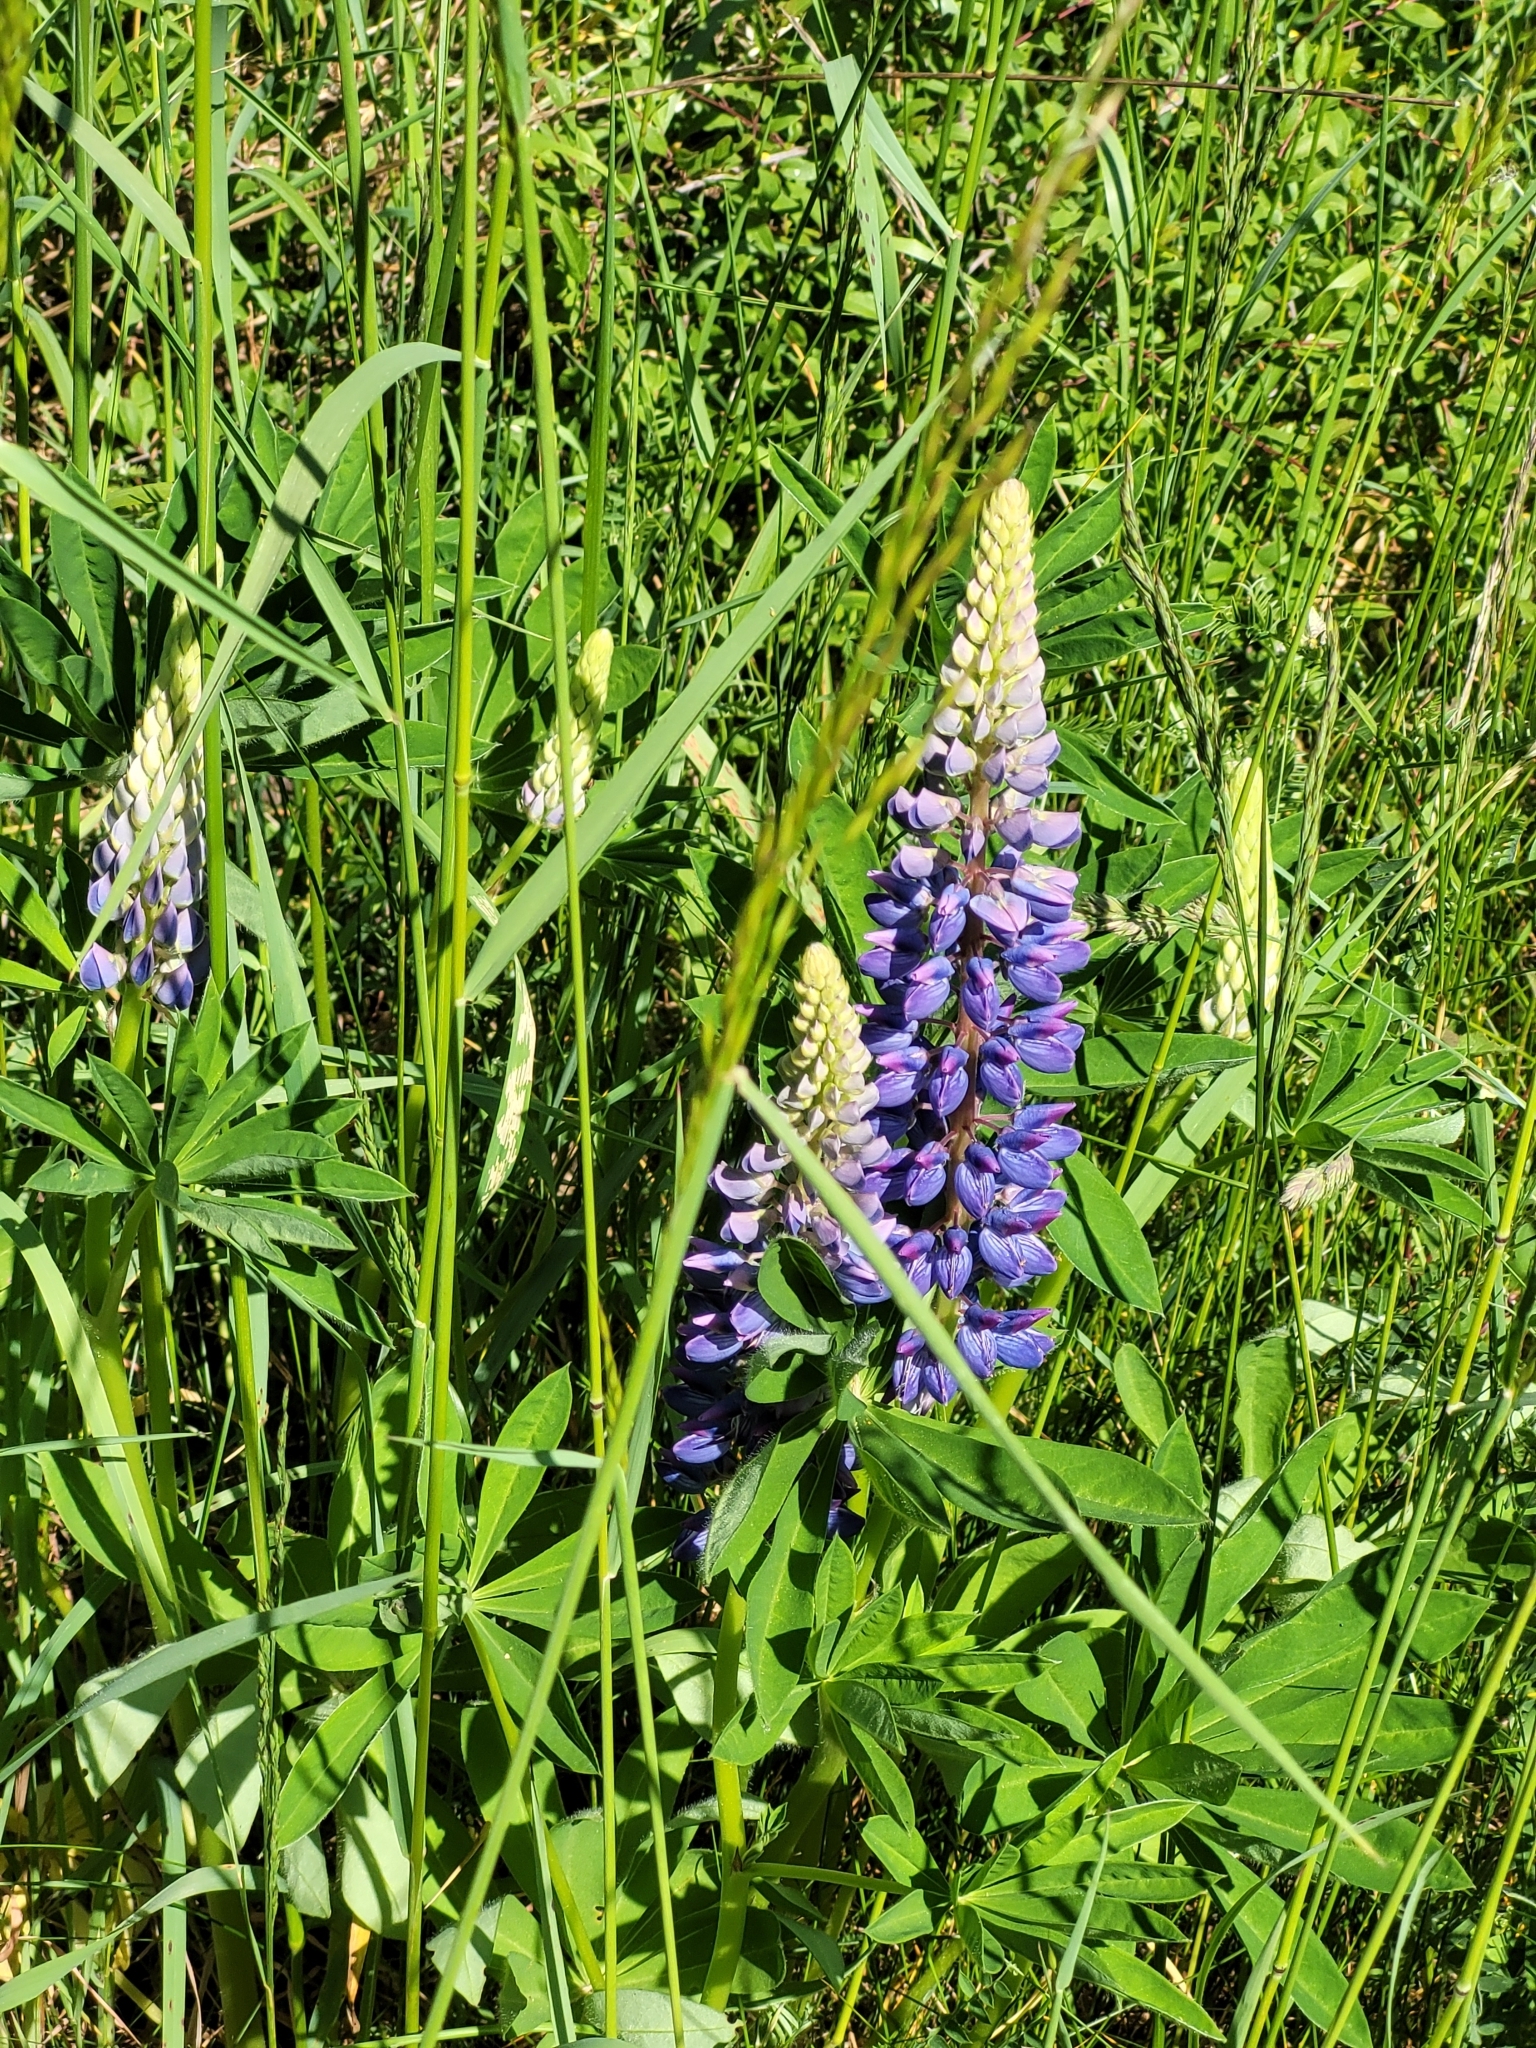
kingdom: Plantae
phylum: Tracheophyta
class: Magnoliopsida
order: Fabales
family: Fabaceae
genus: Lupinus
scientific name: Lupinus polyphyllus
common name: Garden lupin
